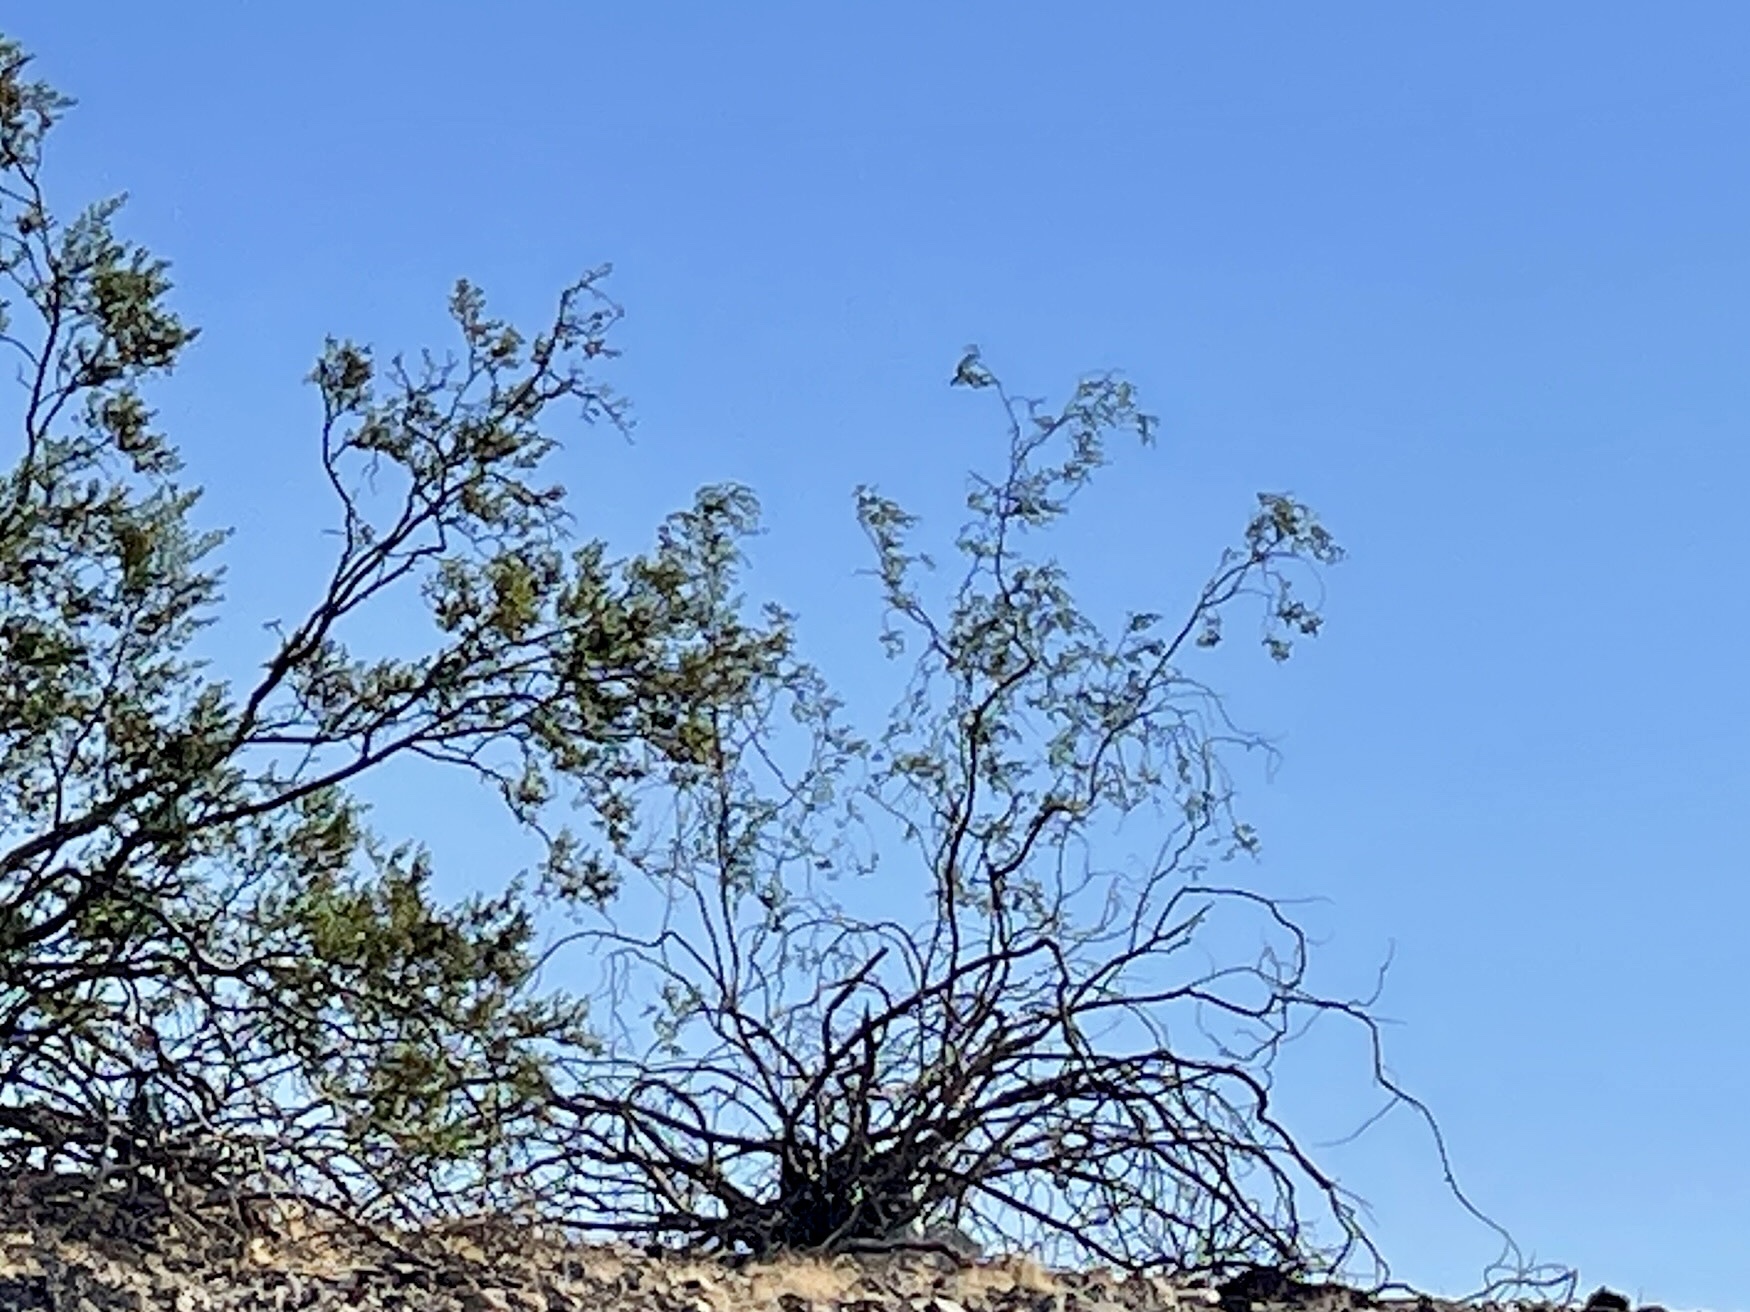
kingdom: Plantae
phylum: Tracheophyta
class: Magnoliopsida
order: Zygophyllales
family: Zygophyllaceae
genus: Larrea
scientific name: Larrea tridentata
